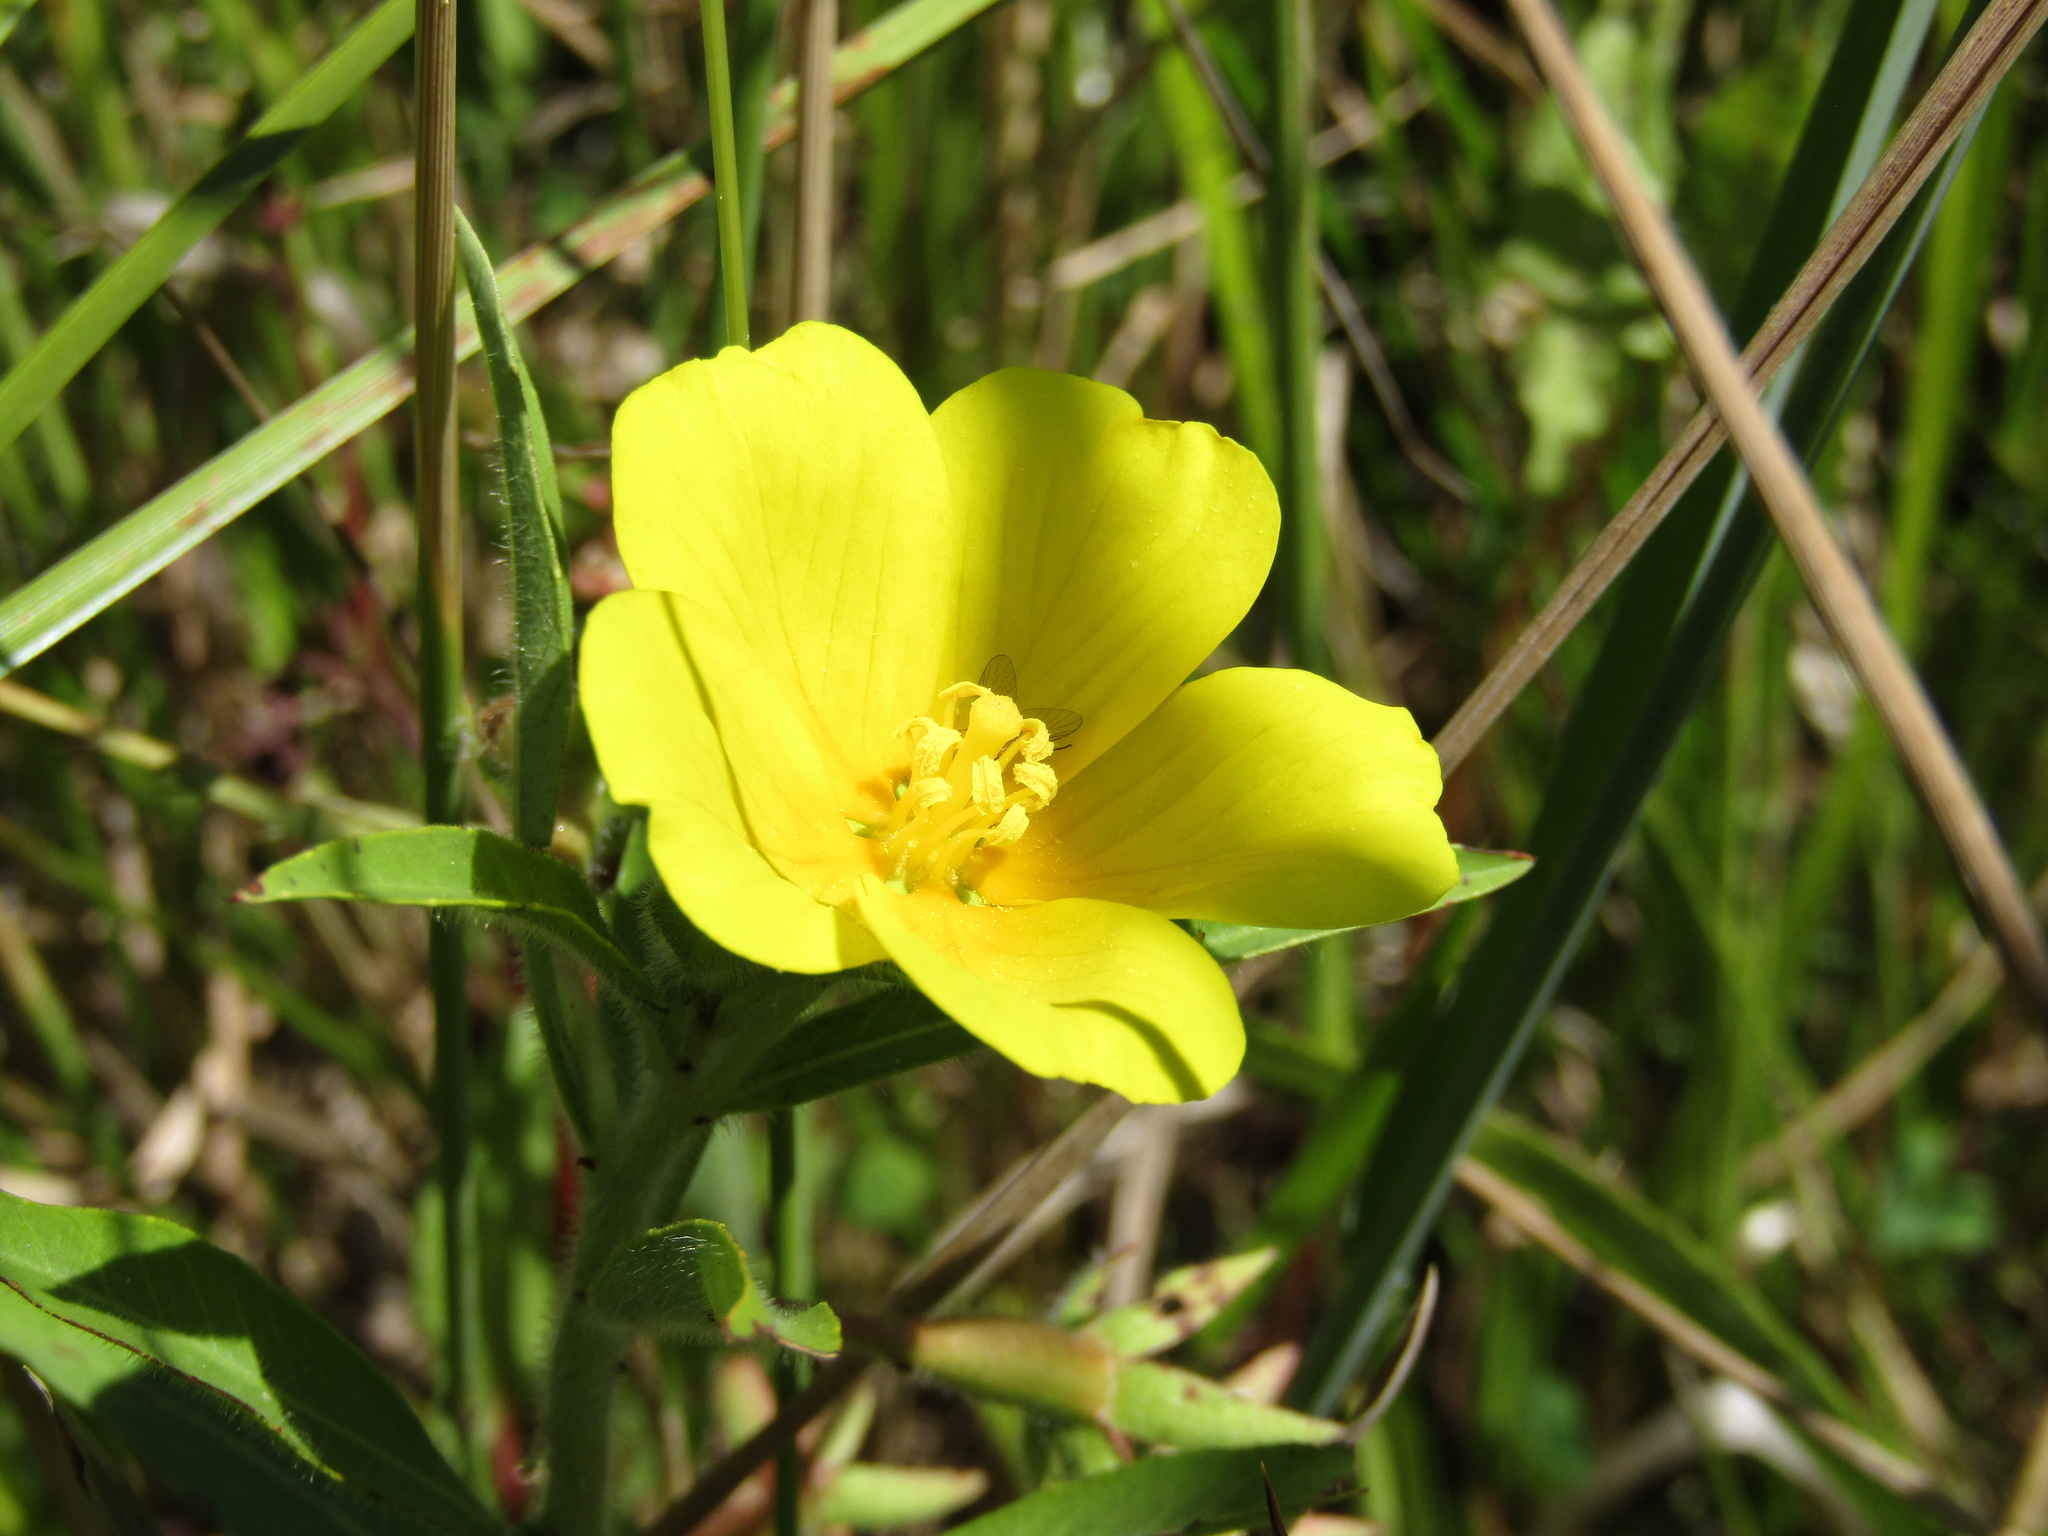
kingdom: Plantae
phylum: Tracheophyta
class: Magnoliopsida
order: Myrtales
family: Onagraceae
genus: Ludwigia
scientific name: Ludwigia peploides
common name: Floating primrose-willow
